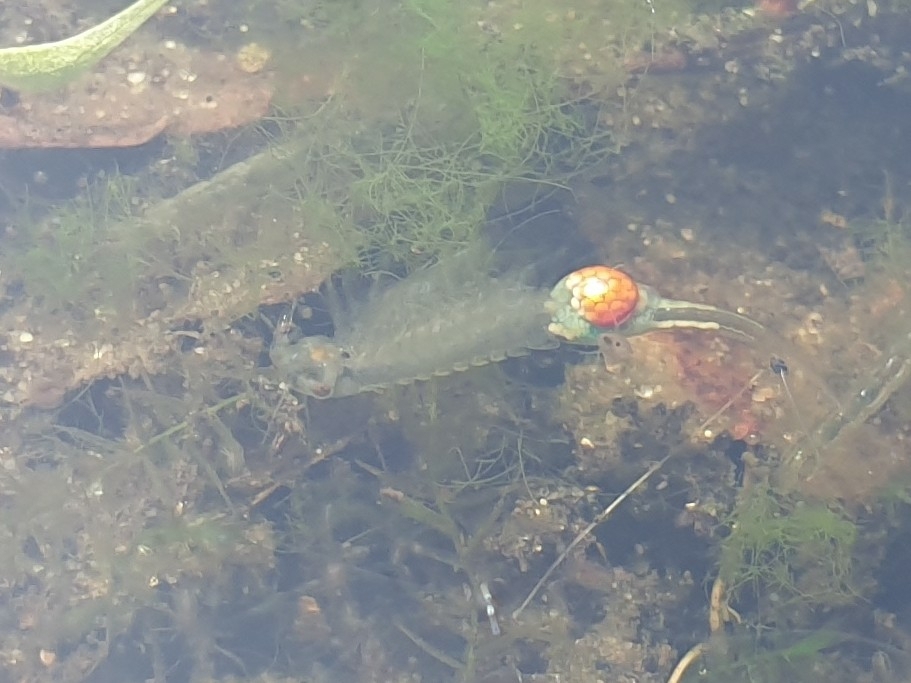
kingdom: Animalia
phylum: Arthropoda
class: Branchiopoda
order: Anostraca
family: Tanymastigidae
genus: Tanymastix
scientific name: Tanymastix stagnalis
